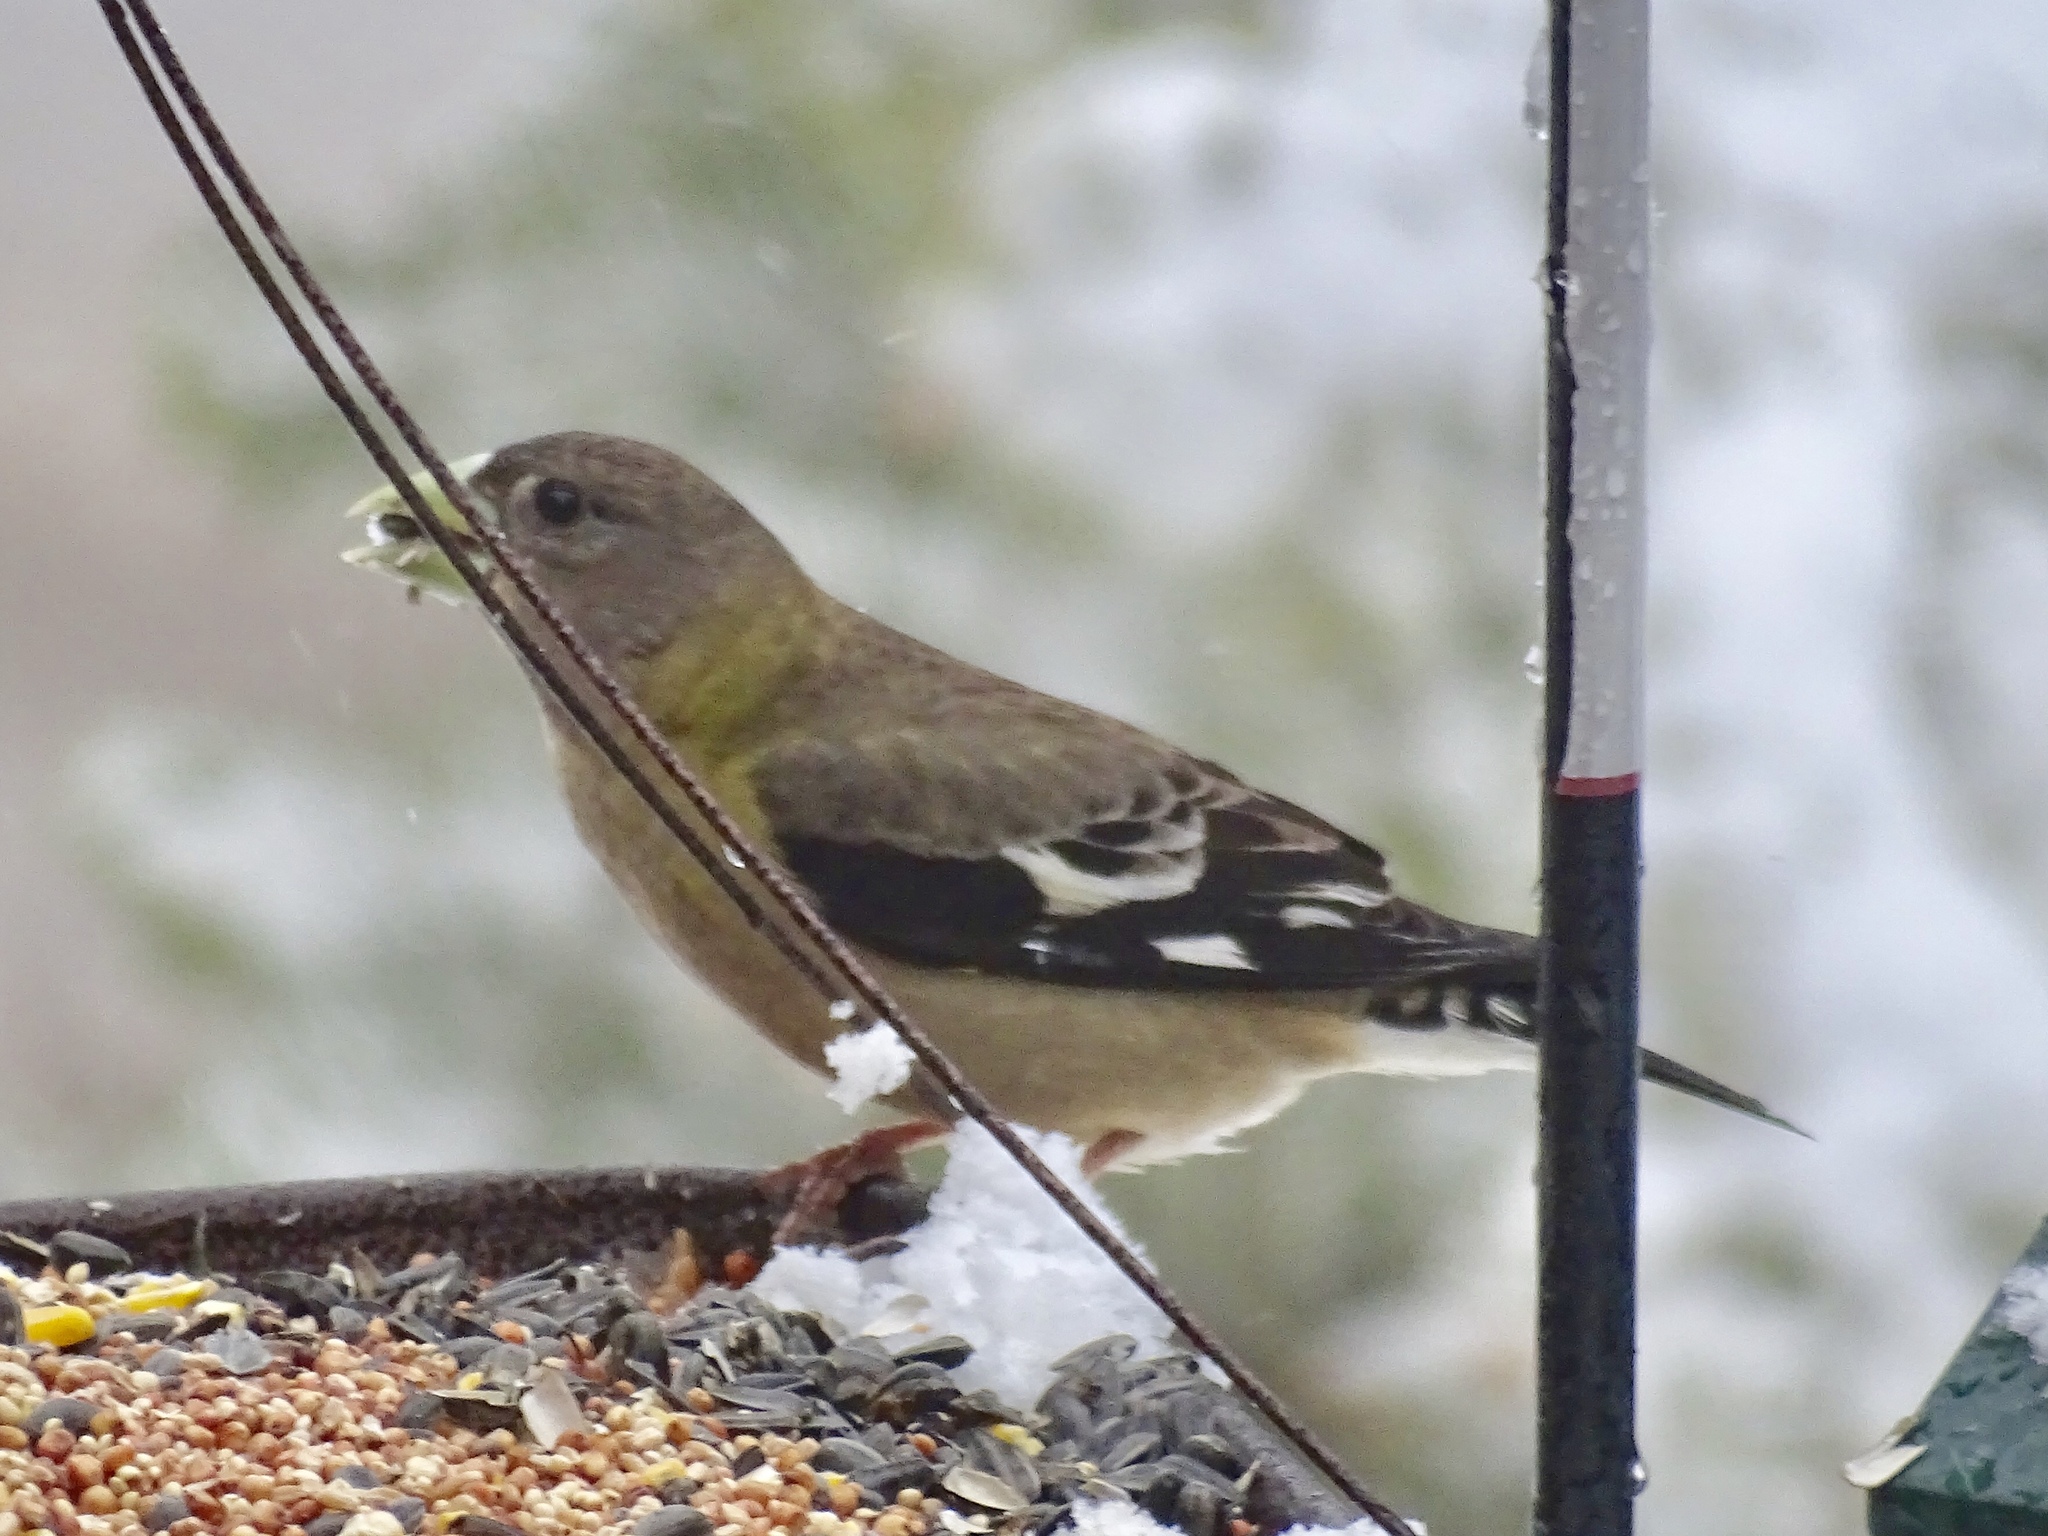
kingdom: Animalia
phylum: Chordata
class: Aves
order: Passeriformes
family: Fringillidae
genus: Hesperiphona
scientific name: Hesperiphona vespertina
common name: Evening grosbeak
